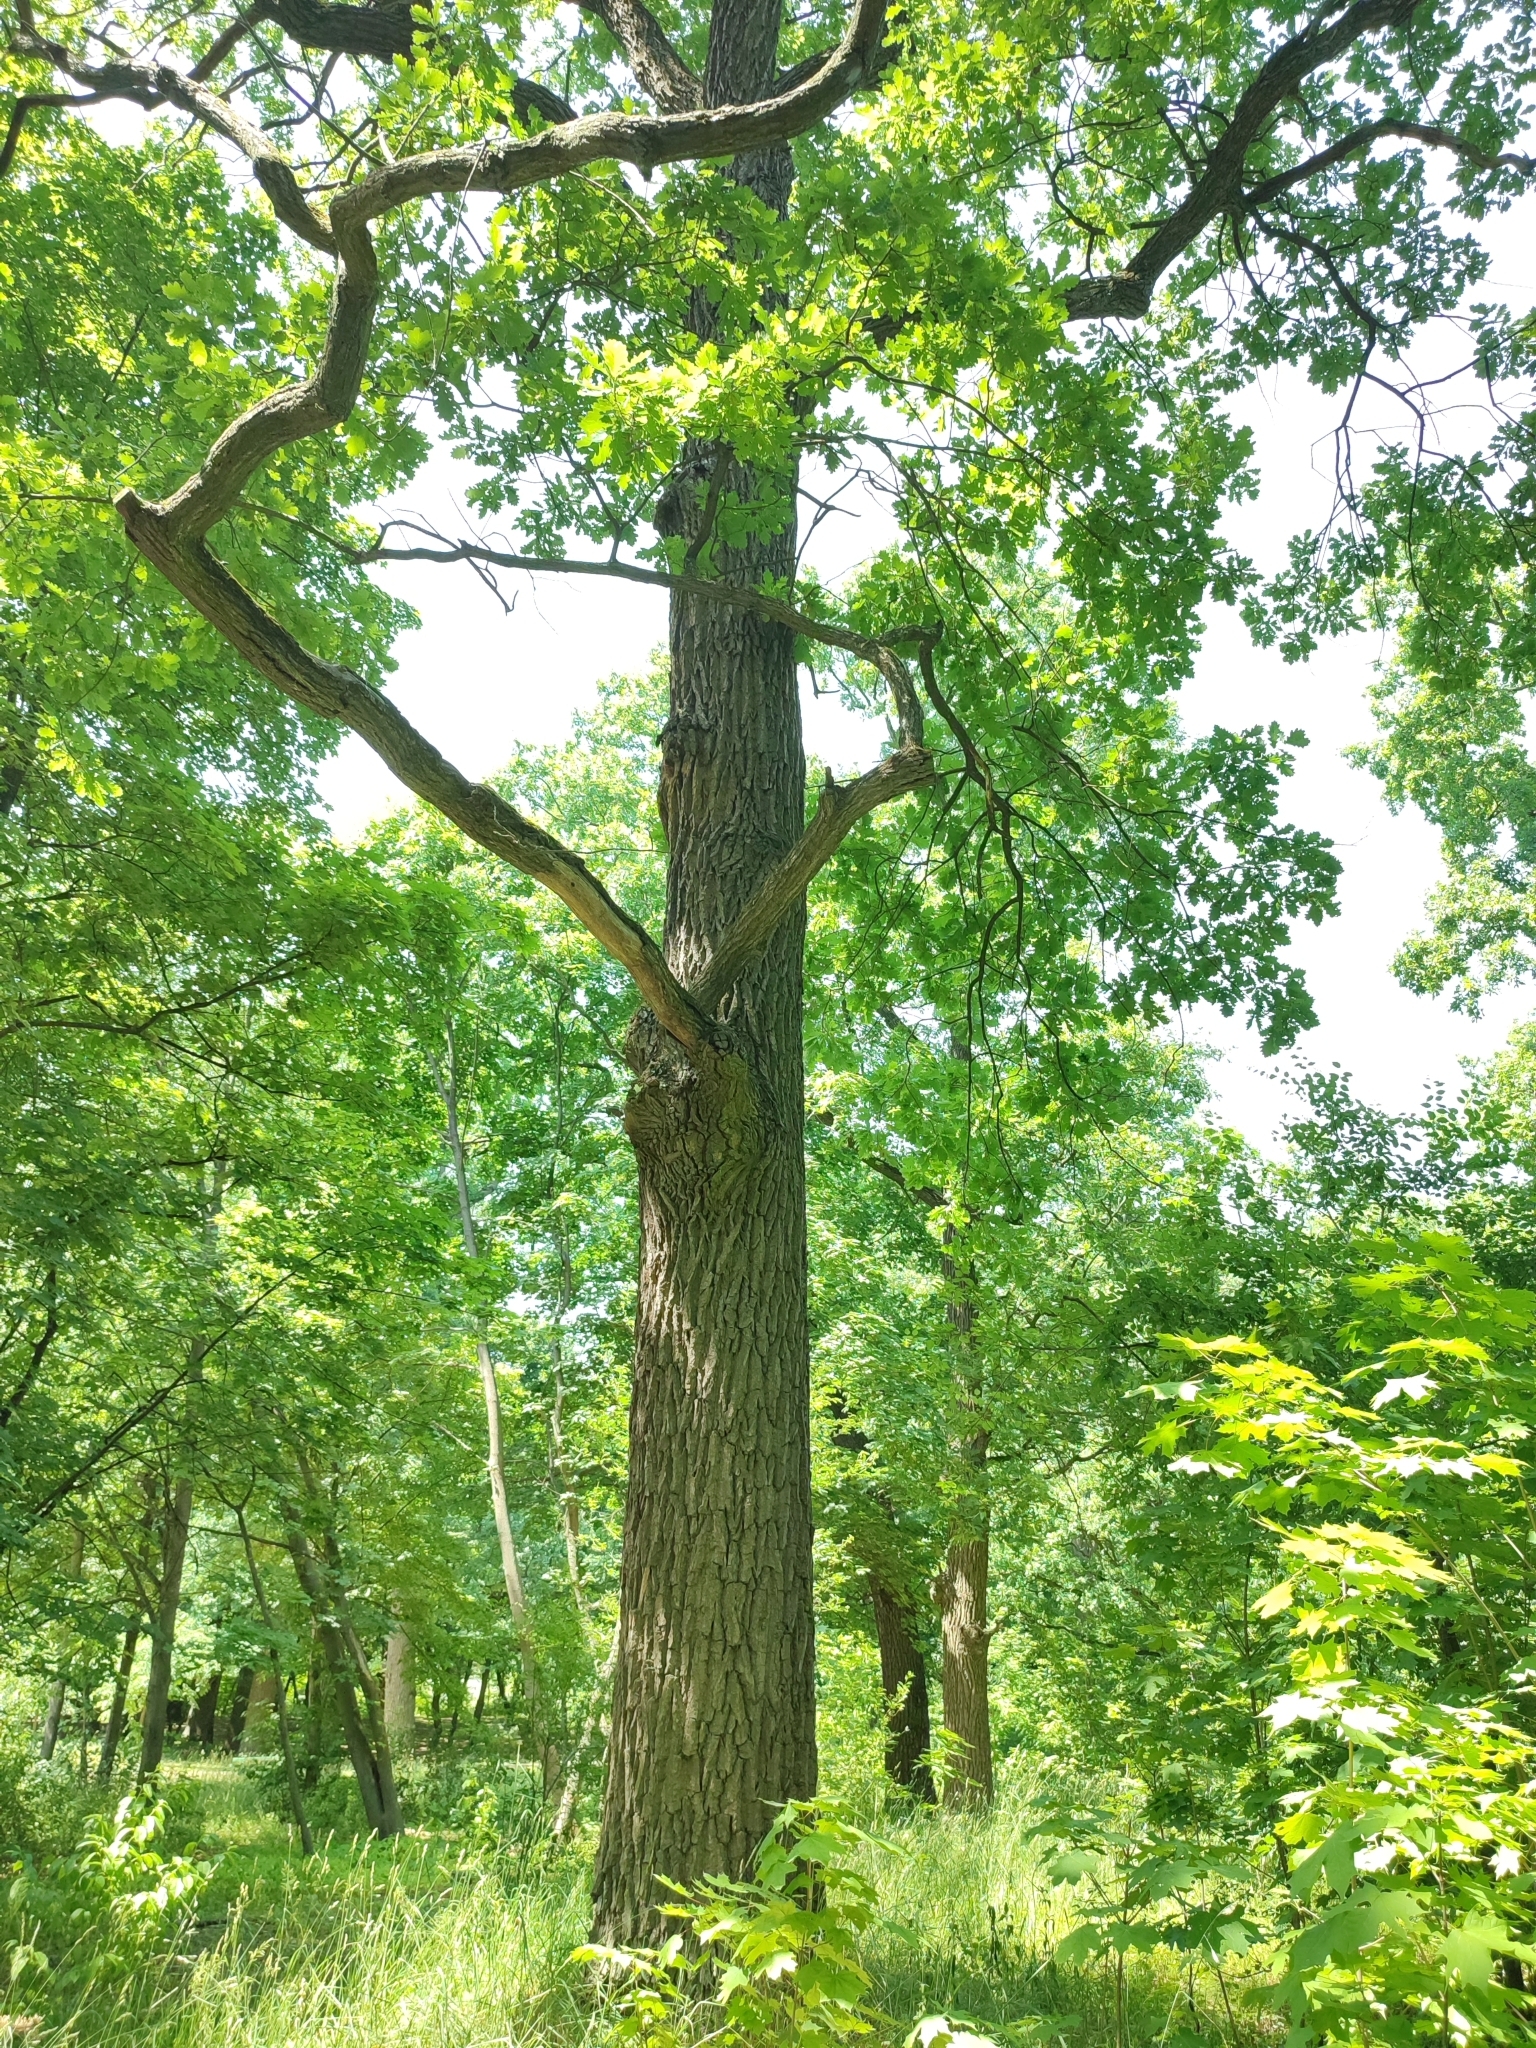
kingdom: Plantae
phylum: Tracheophyta
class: Magnoliopsida
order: Fagales
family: Fagaceae
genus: Quercus
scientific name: Quercus robur
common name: Pedunculate oak
